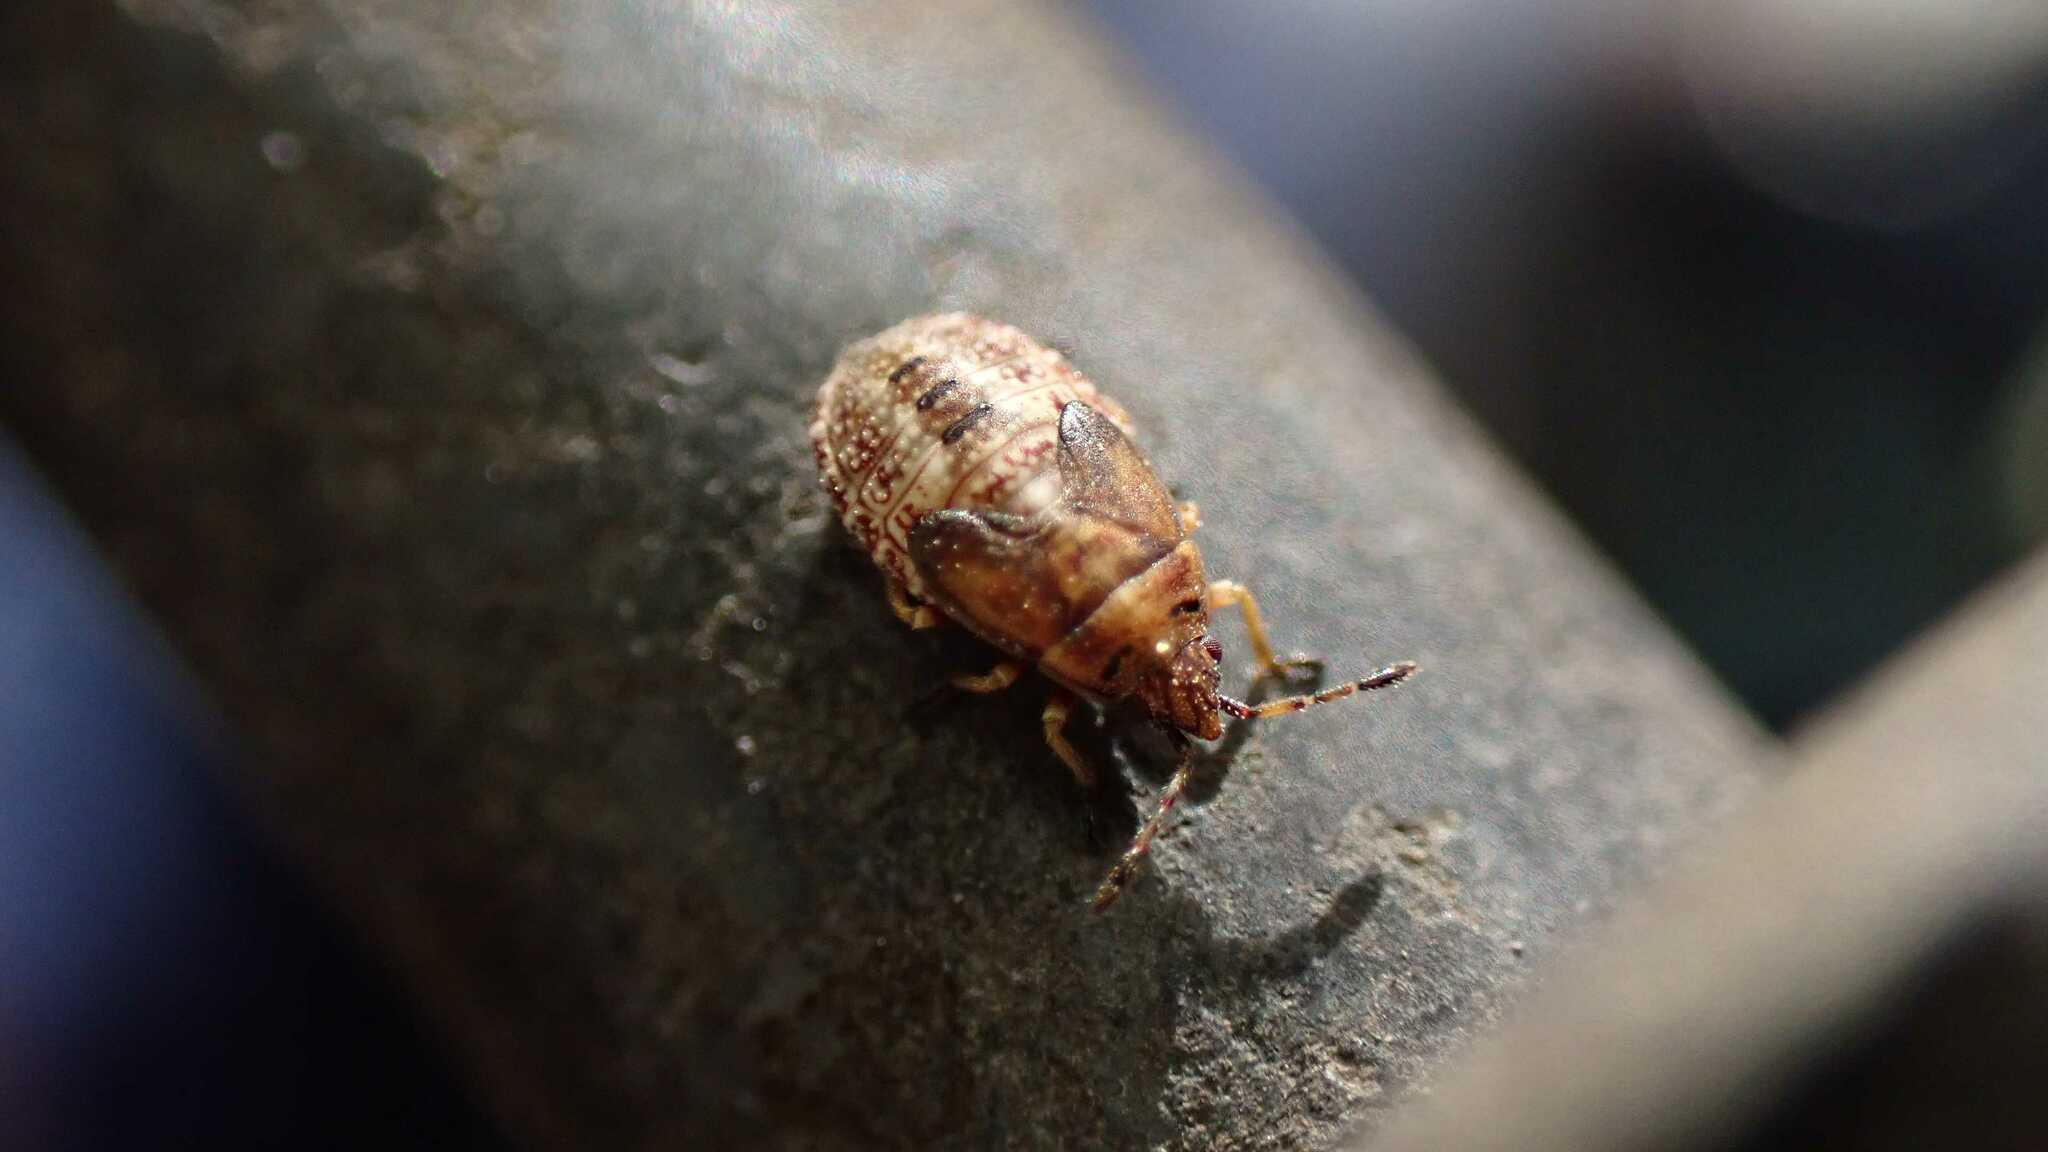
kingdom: Animalia
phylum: Arthropoda
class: Insecta
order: Hemiptera
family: Lygaeidae
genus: Kleidocerys
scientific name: Kleidocerys resedae
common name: Birch catkin bug
